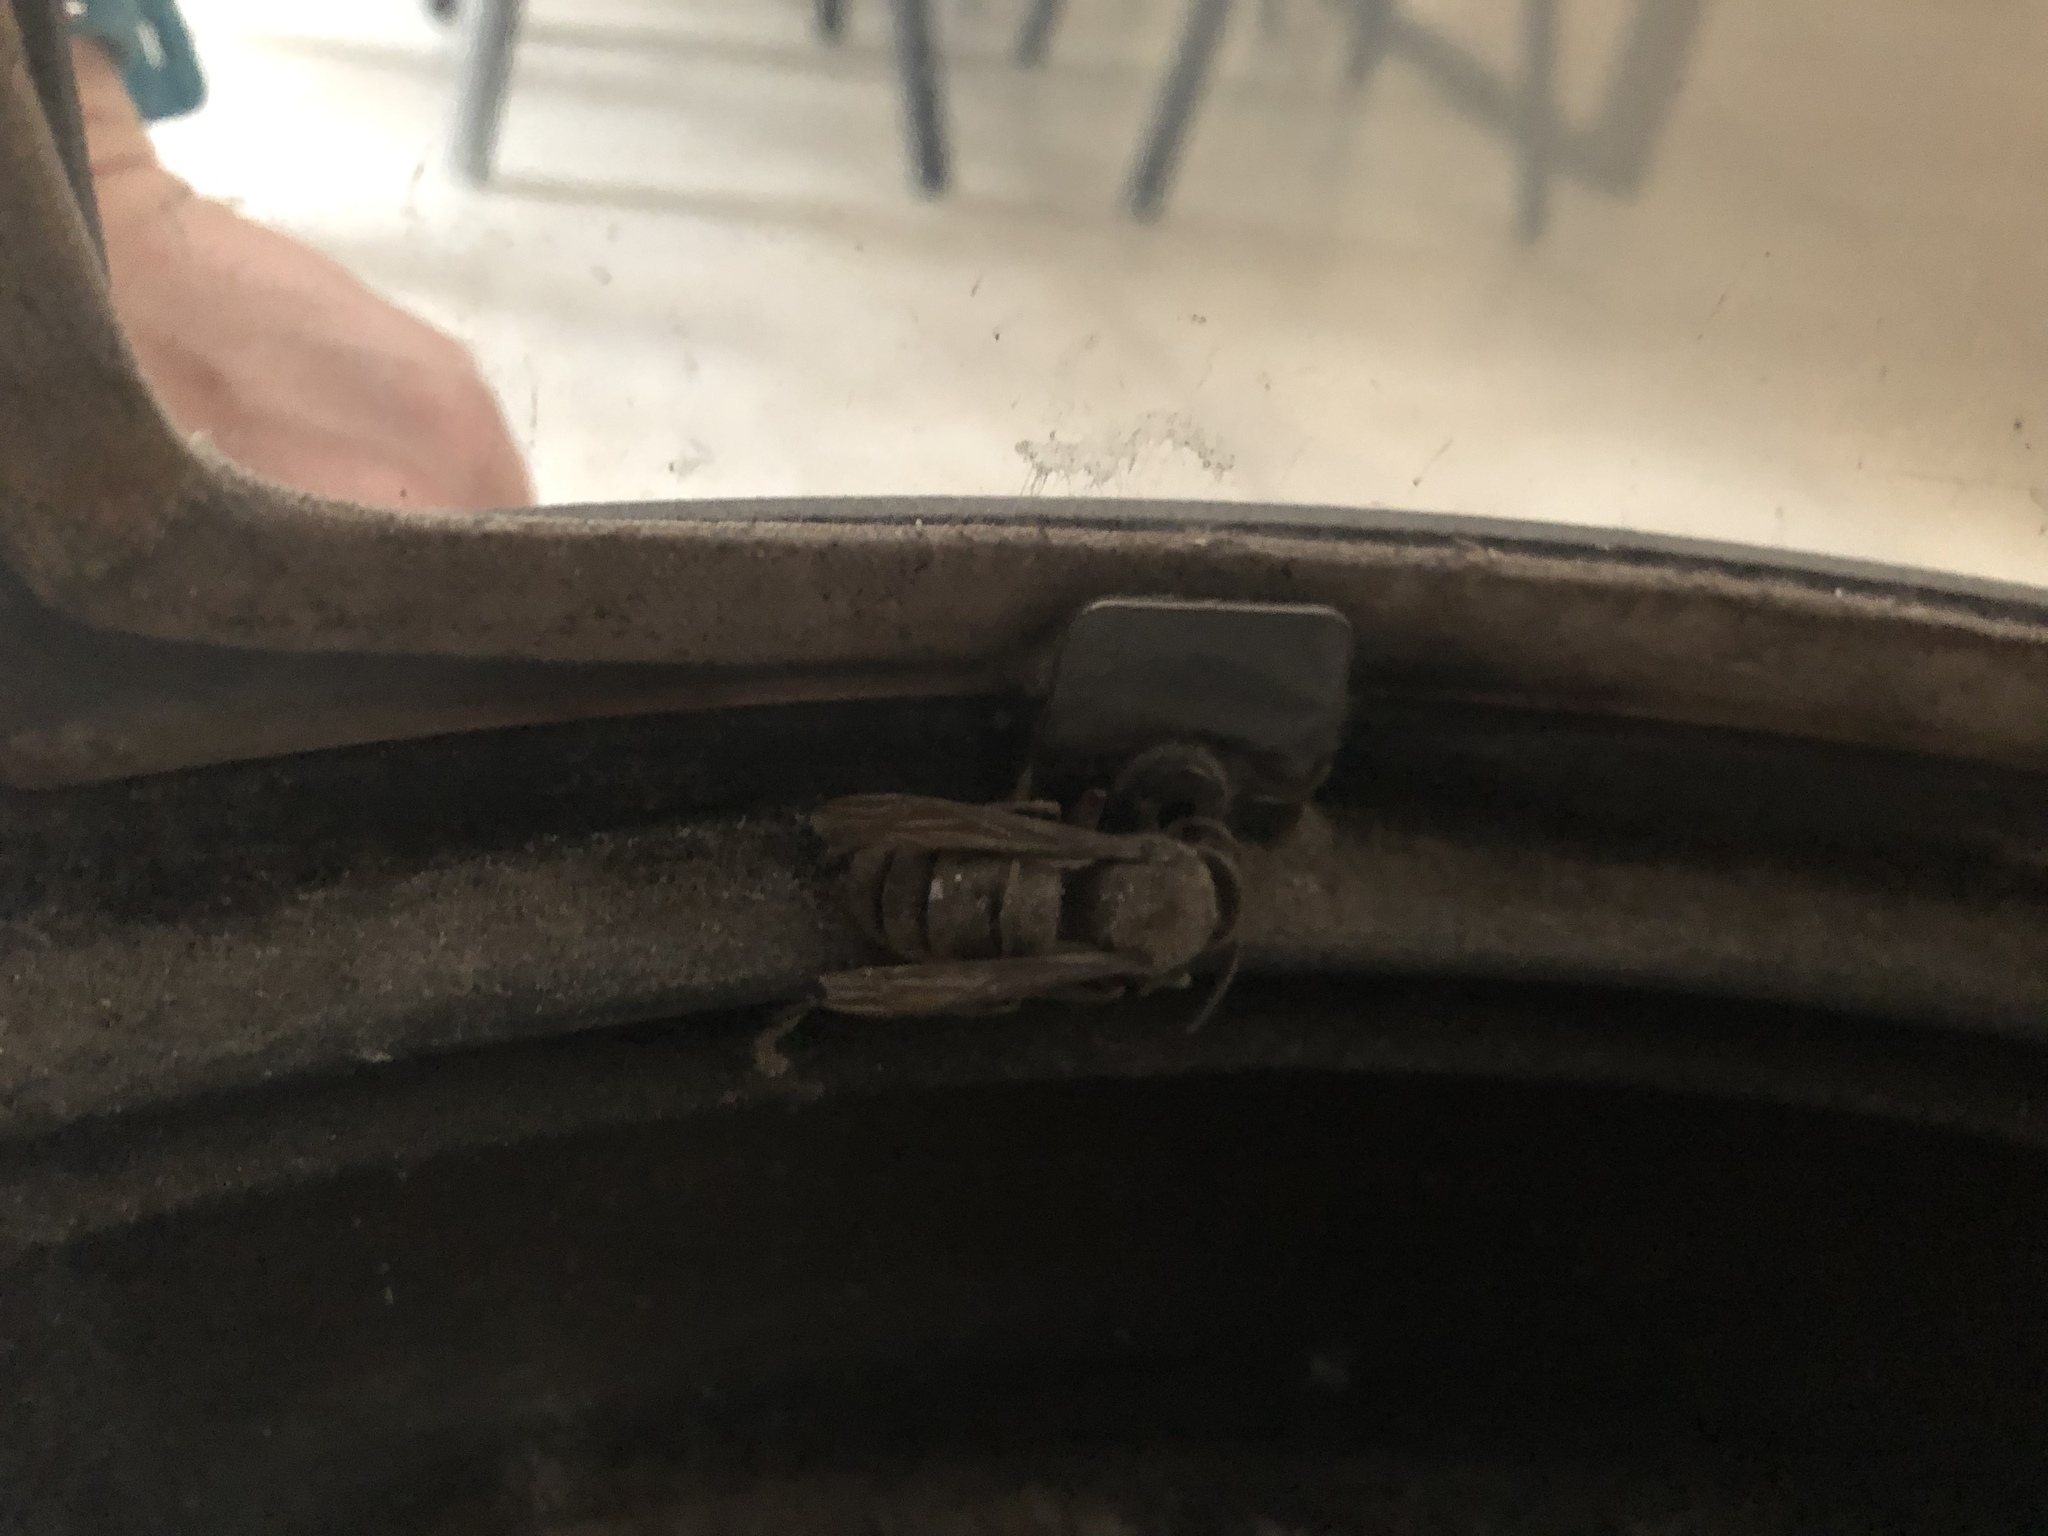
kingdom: Animalia
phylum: Arthropoda
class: Insecta
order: Hymenoptera
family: Vespidae
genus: Vespa
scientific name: Vespa crabro
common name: Hornet
